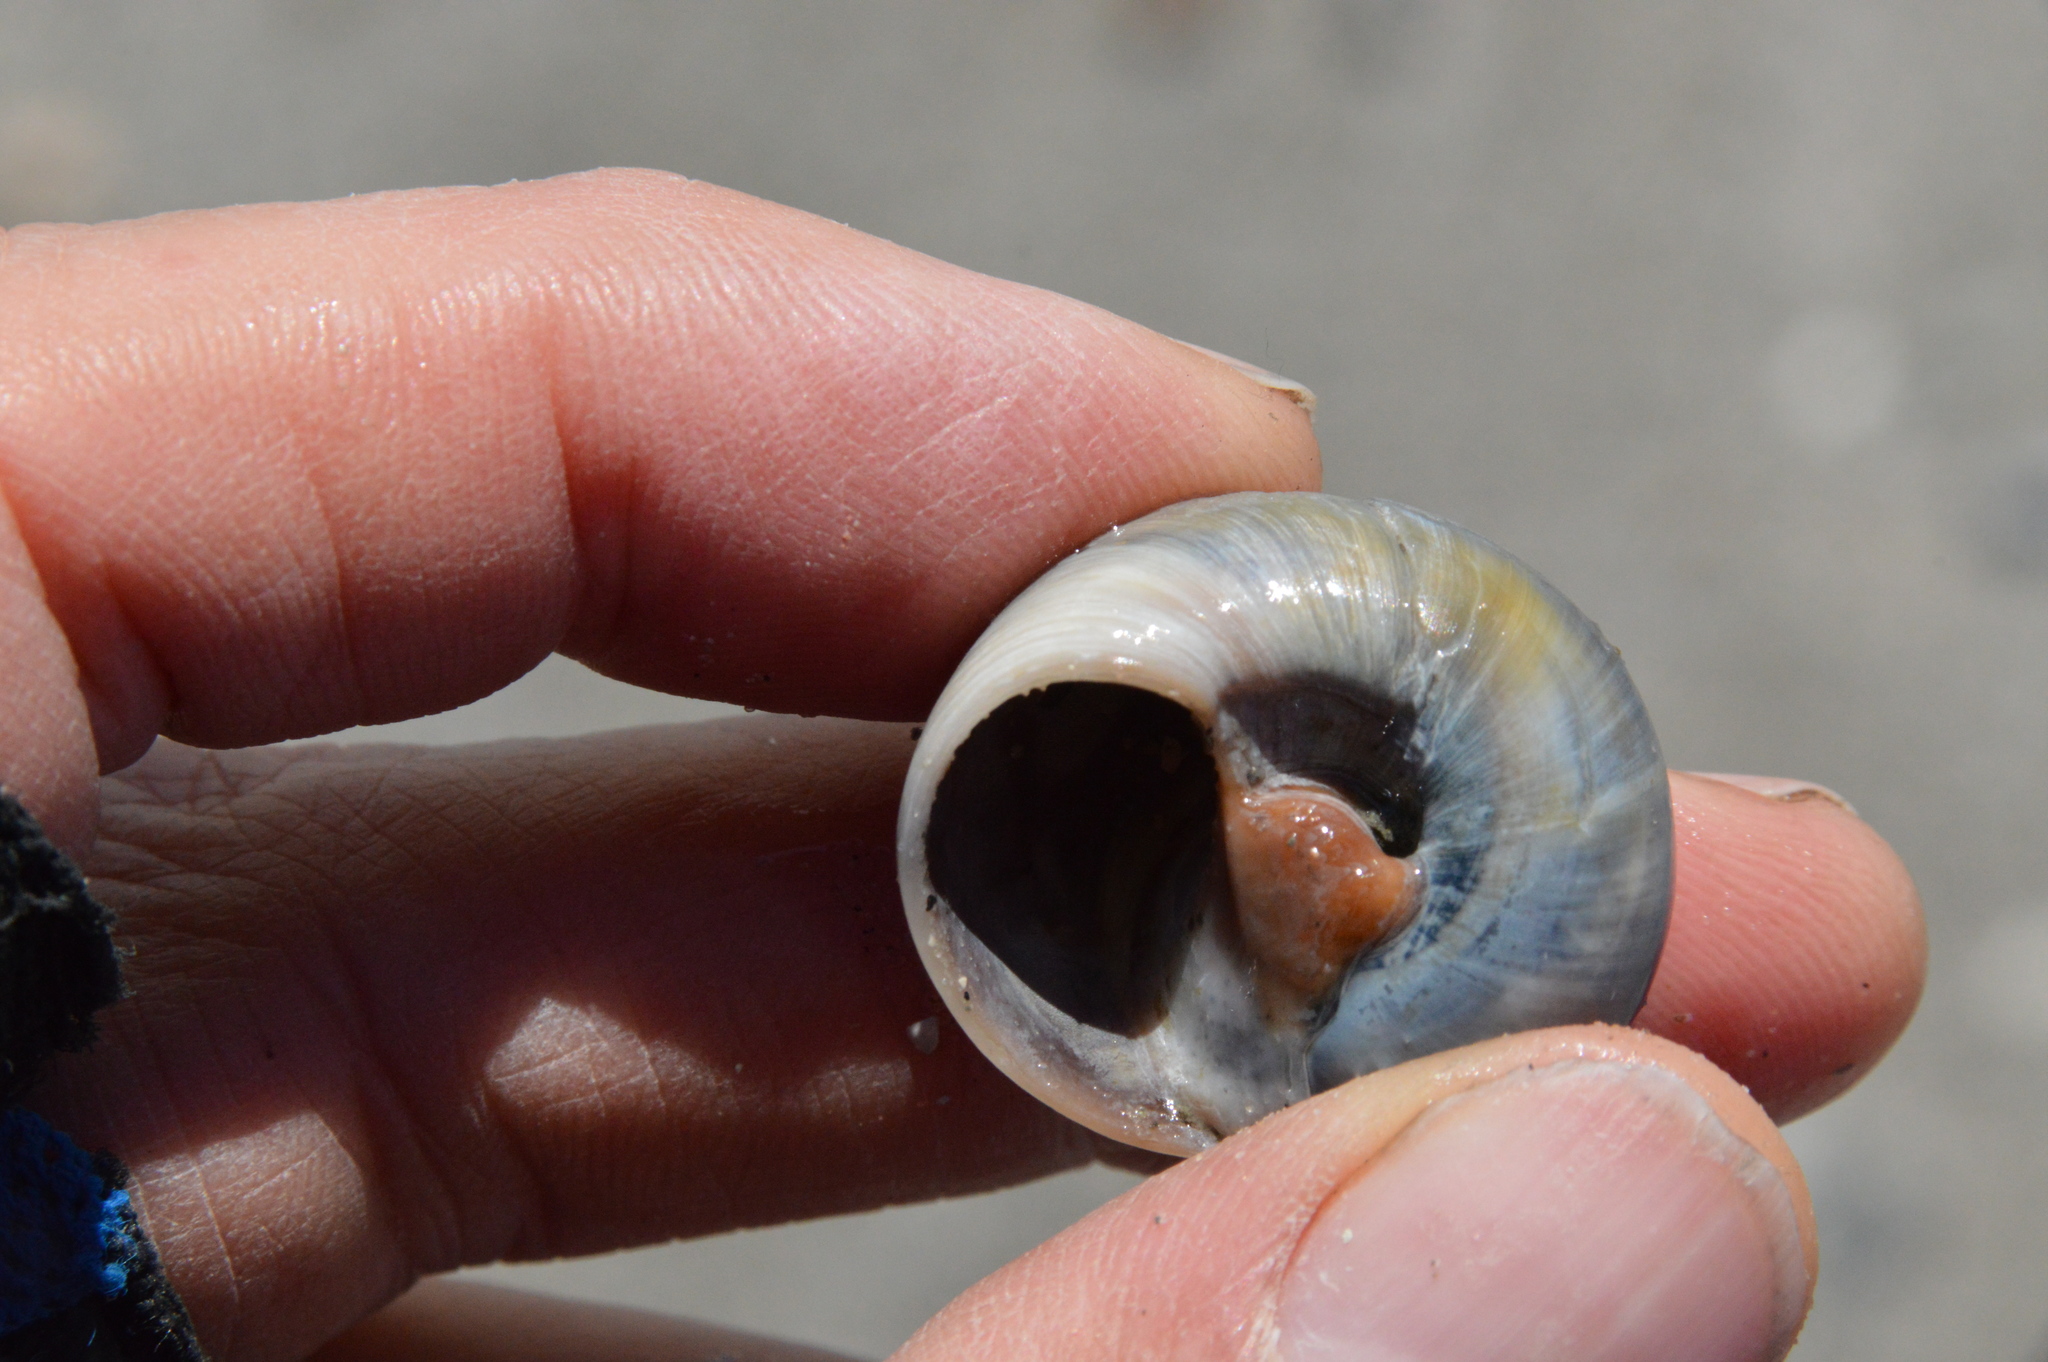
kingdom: Animalia
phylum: Mollusca
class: Gastropoda
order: Littorinimorpha
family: Naticidae
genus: Neverita
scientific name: Neverita delessertiana
